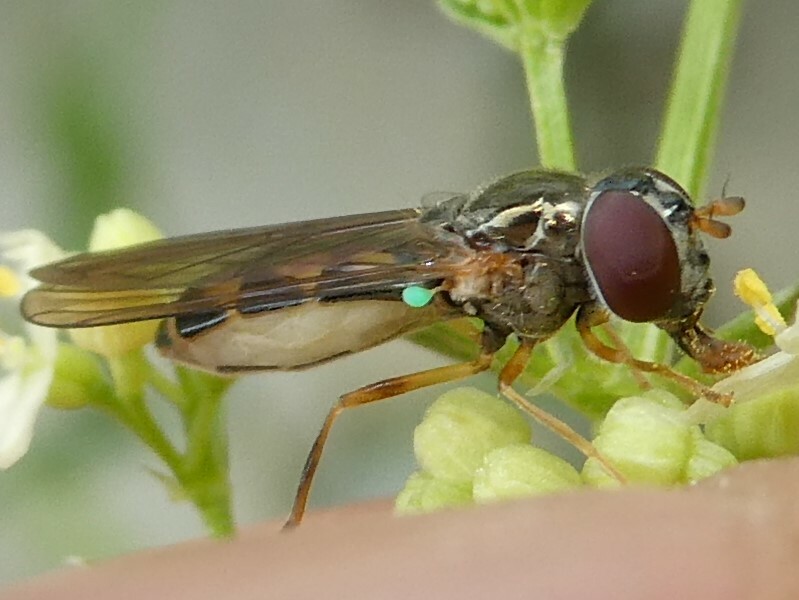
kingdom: Animalia
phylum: Arthropoda
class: Insecta
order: Diptera
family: Syrphidae
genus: Melanostoma
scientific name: Melanostoma mellina
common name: Hover fly
